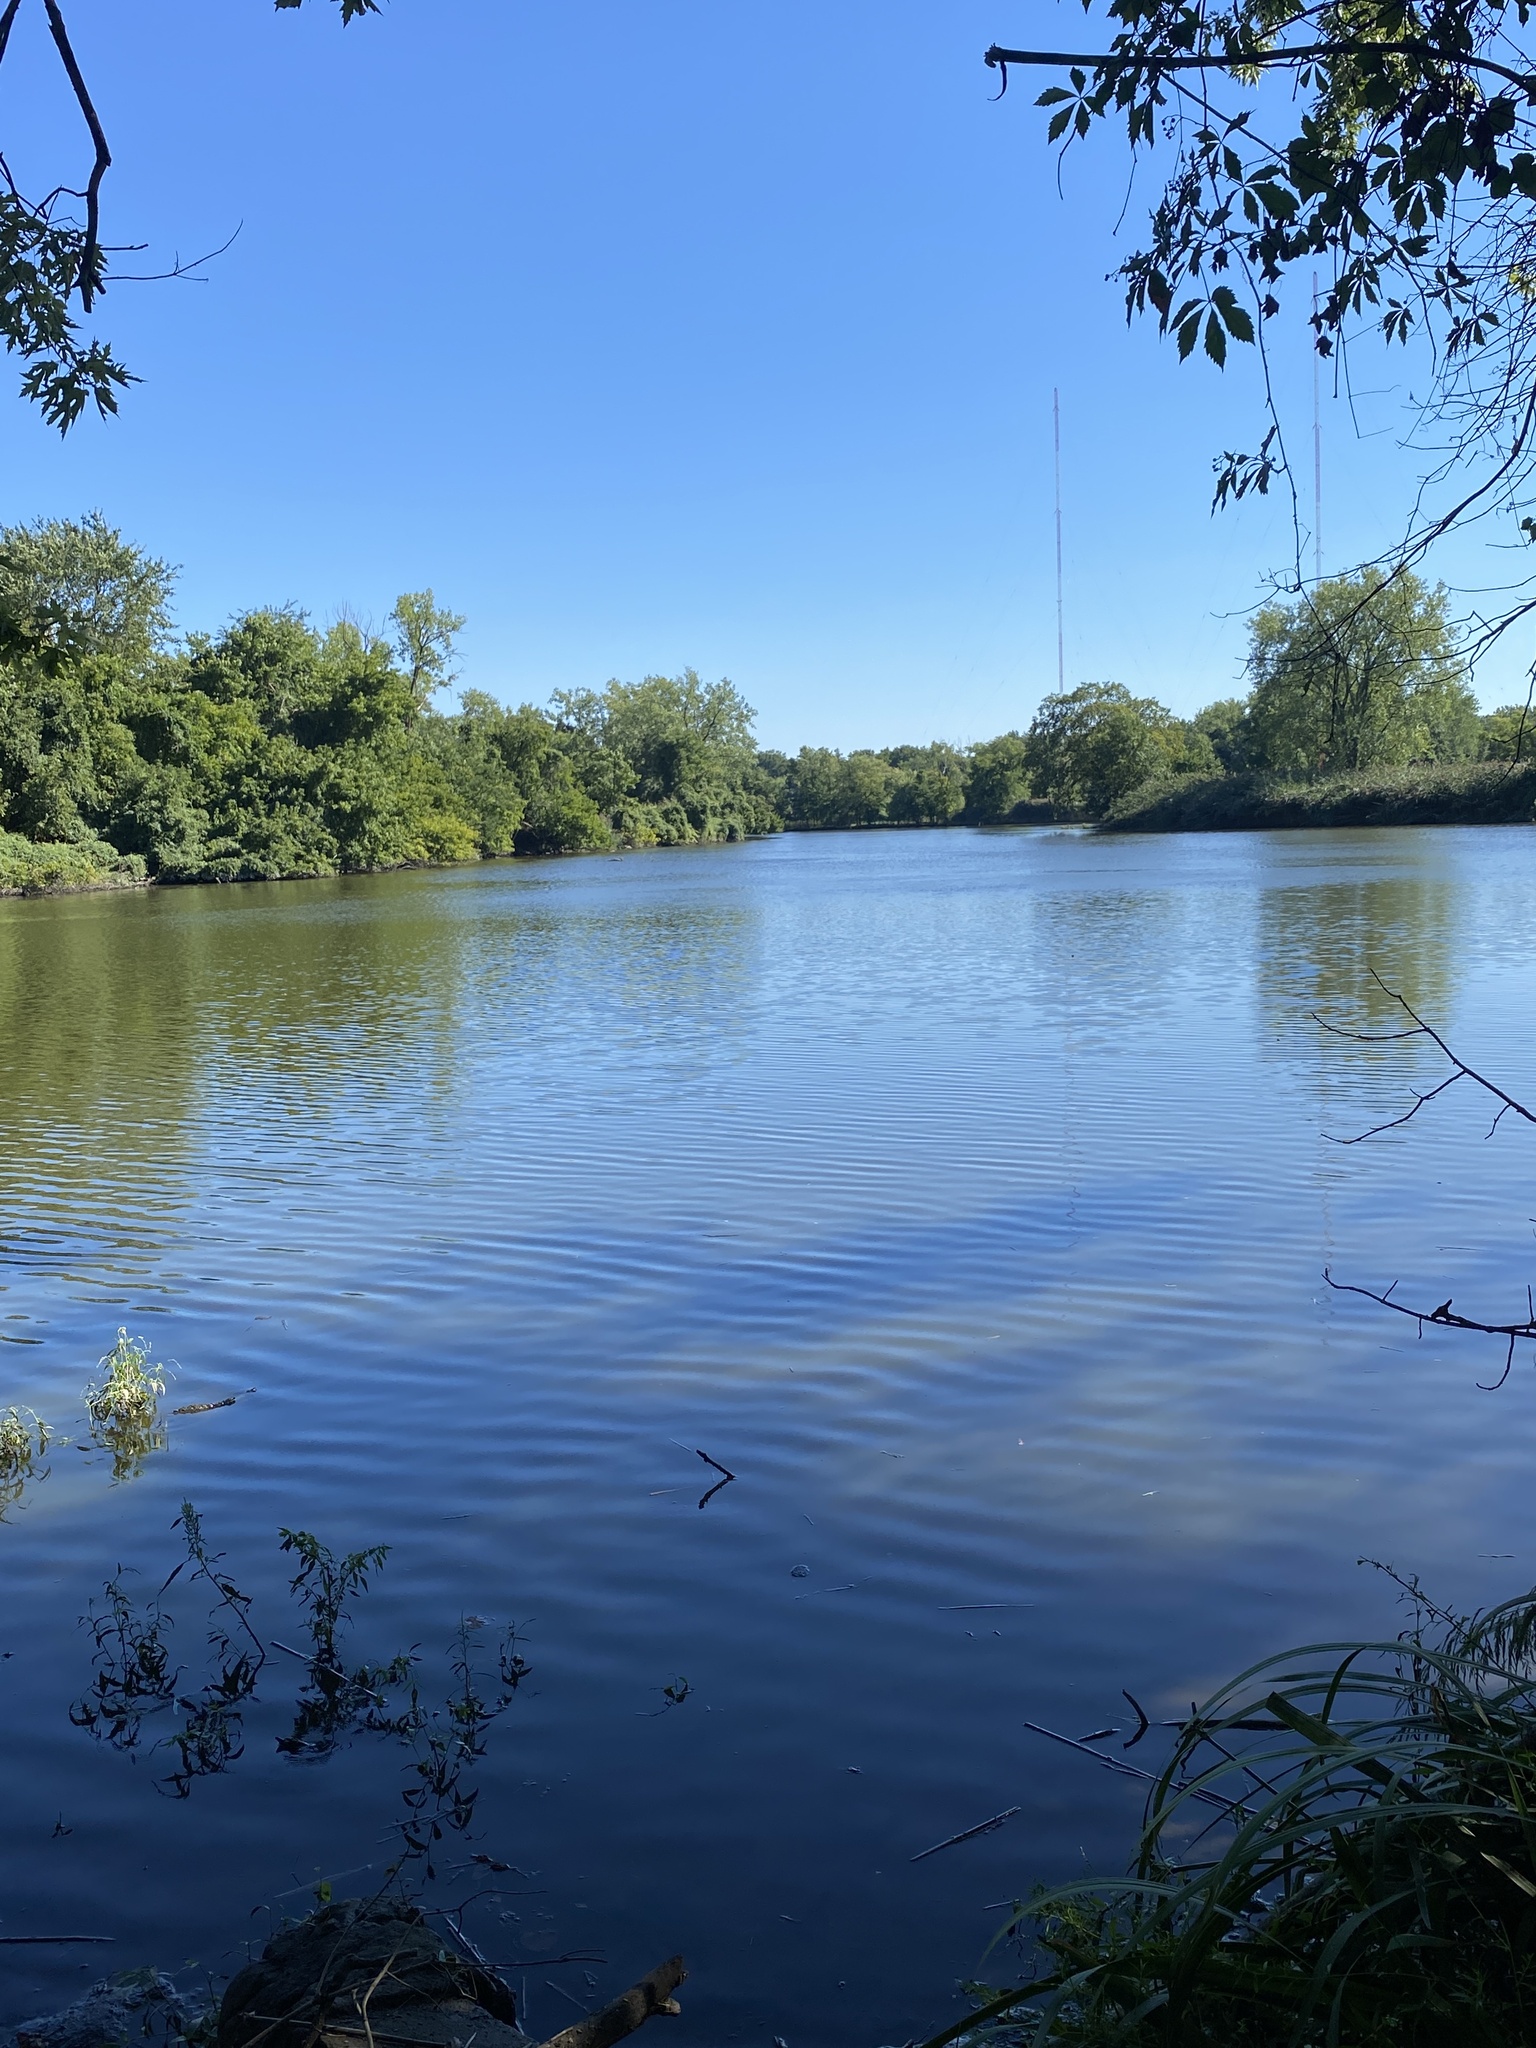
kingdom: Plantae
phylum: Tracheophyta
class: Magnoliopsida
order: Myrtales
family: Lythraceae
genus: Lythrum
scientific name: Lythrum salicaria
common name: Purple loosestrife
